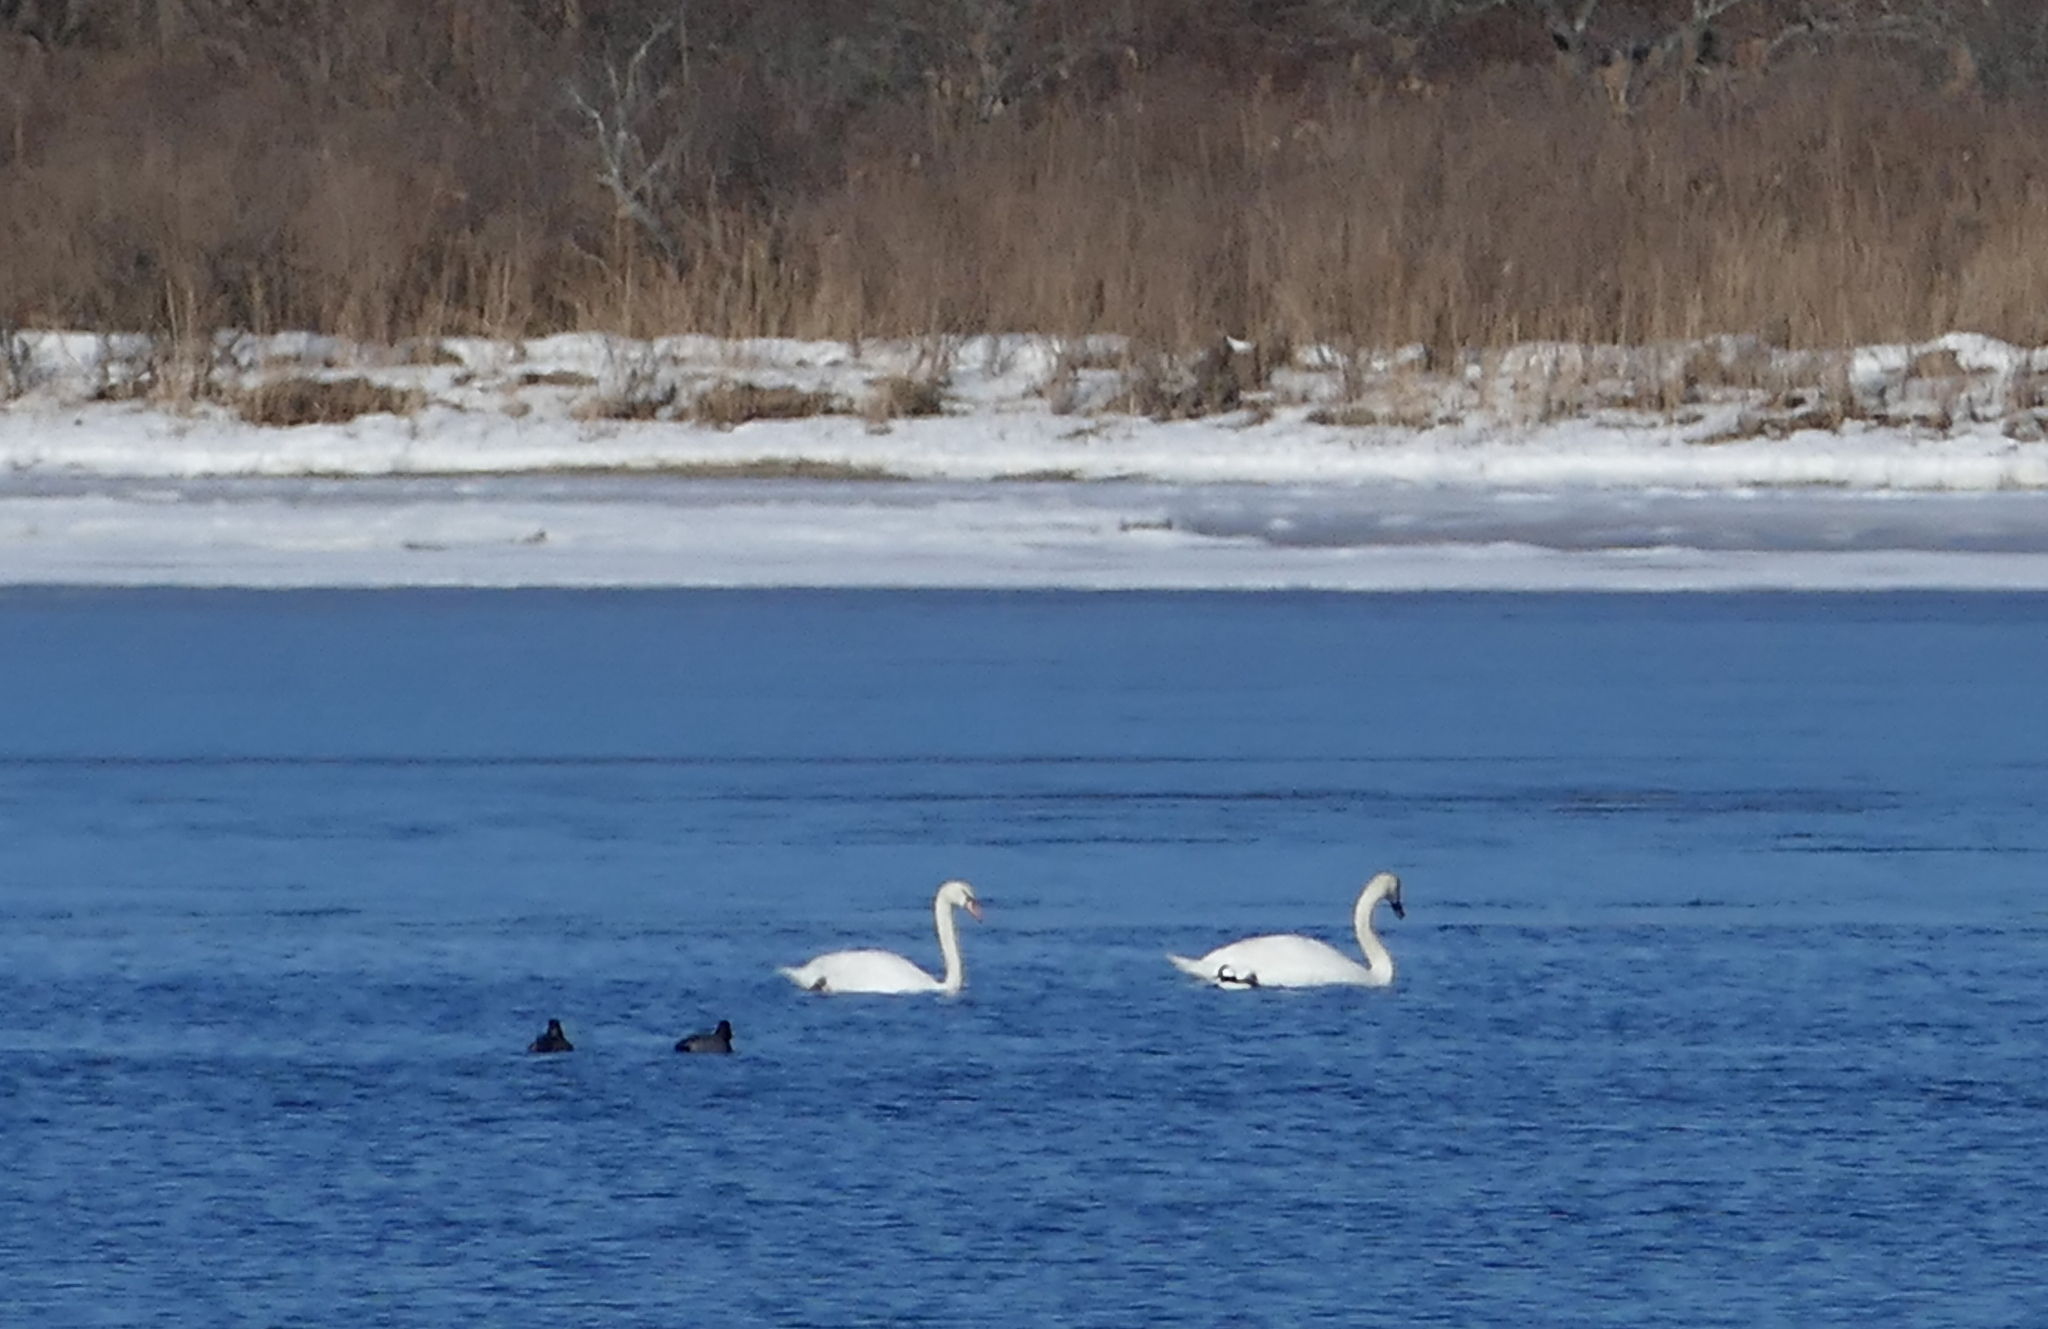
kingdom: Animalia
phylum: Chordata
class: Aves
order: Anseriformes
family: Anatidae
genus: Cygnus
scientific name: Cygnus olor
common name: Mute swan
